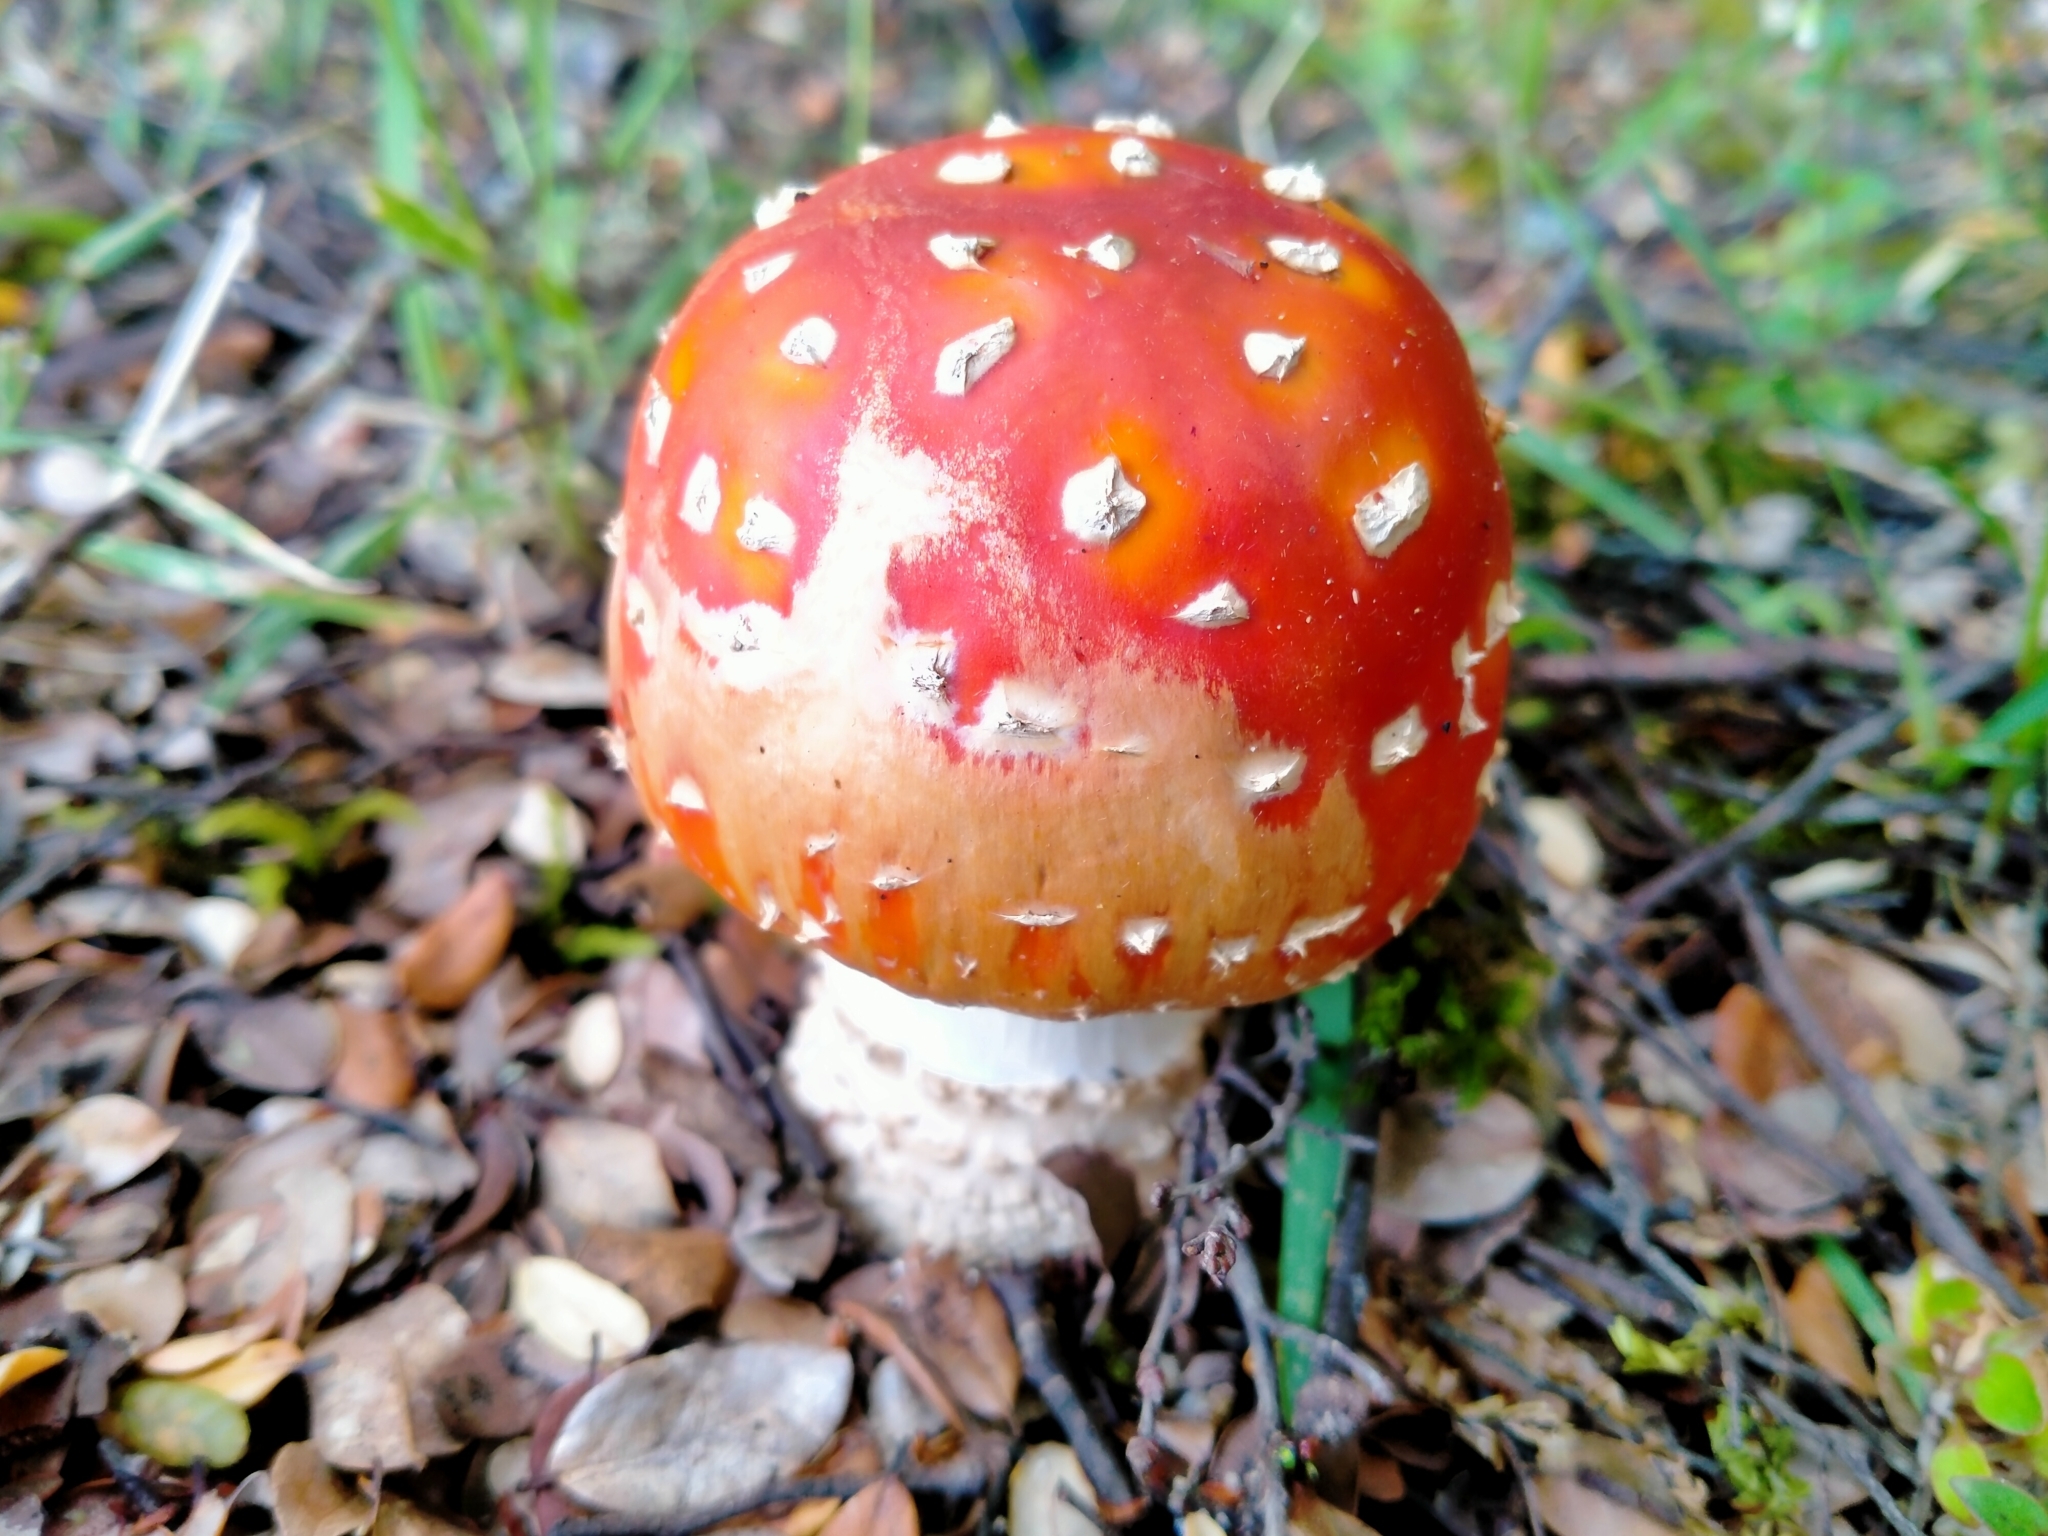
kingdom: Fungi
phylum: Basidiomycota
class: Agaricomycetes
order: Agaricales
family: Amanitaceae
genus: Amanita
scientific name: Amanita muscaria
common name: Fly agaric
